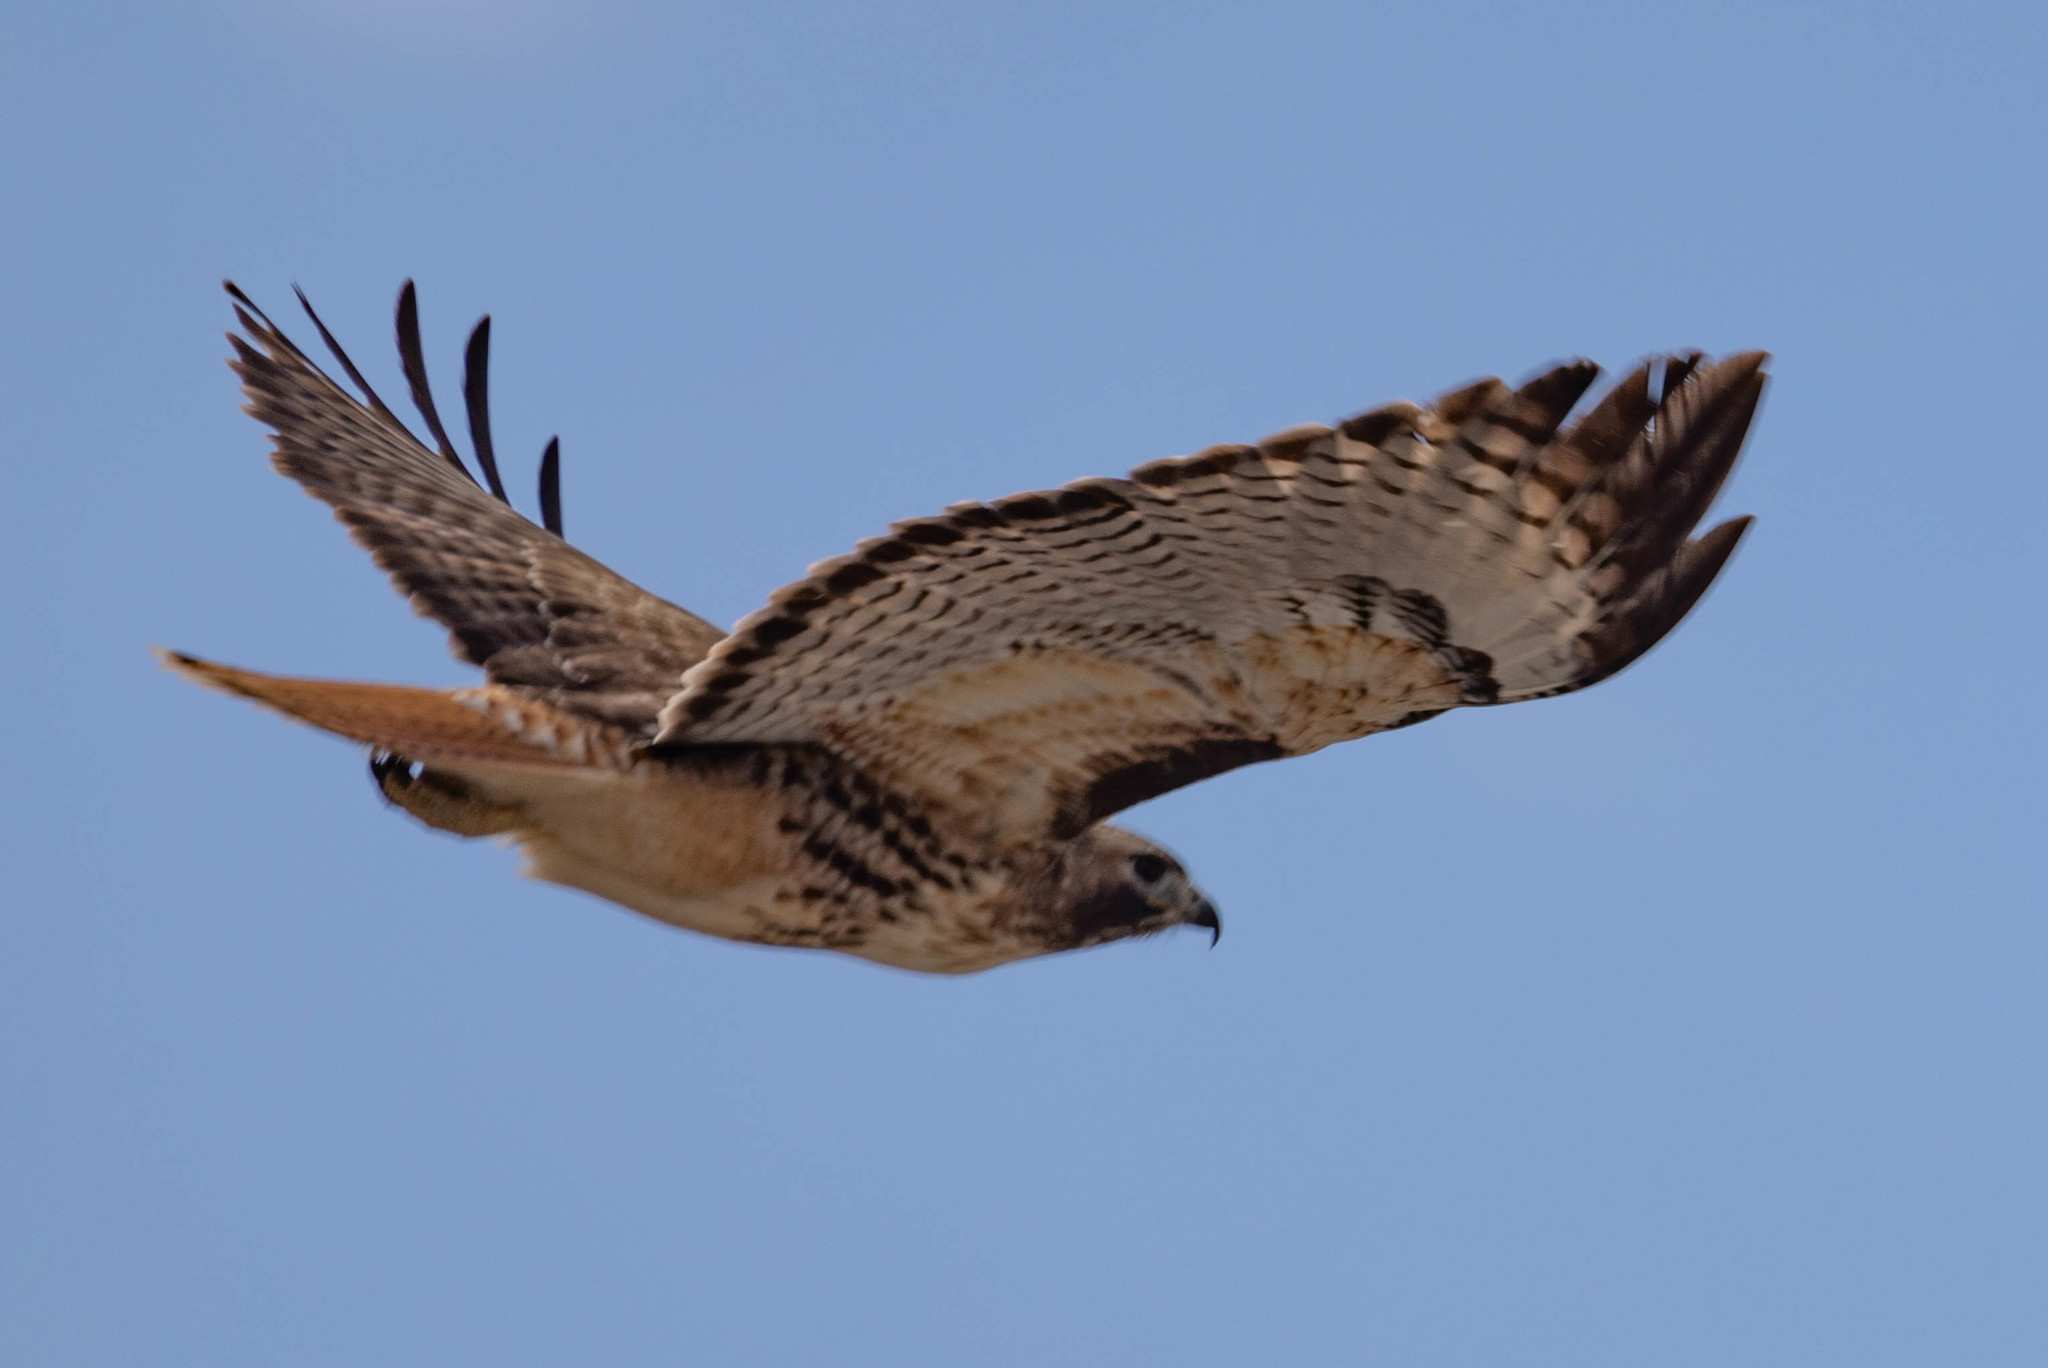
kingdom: Animalia
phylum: Chordata
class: Aves
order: Accipitriformes
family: Accipitridae
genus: Buteo
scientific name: Buteo jamaicensis
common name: Red-tailed hawk
